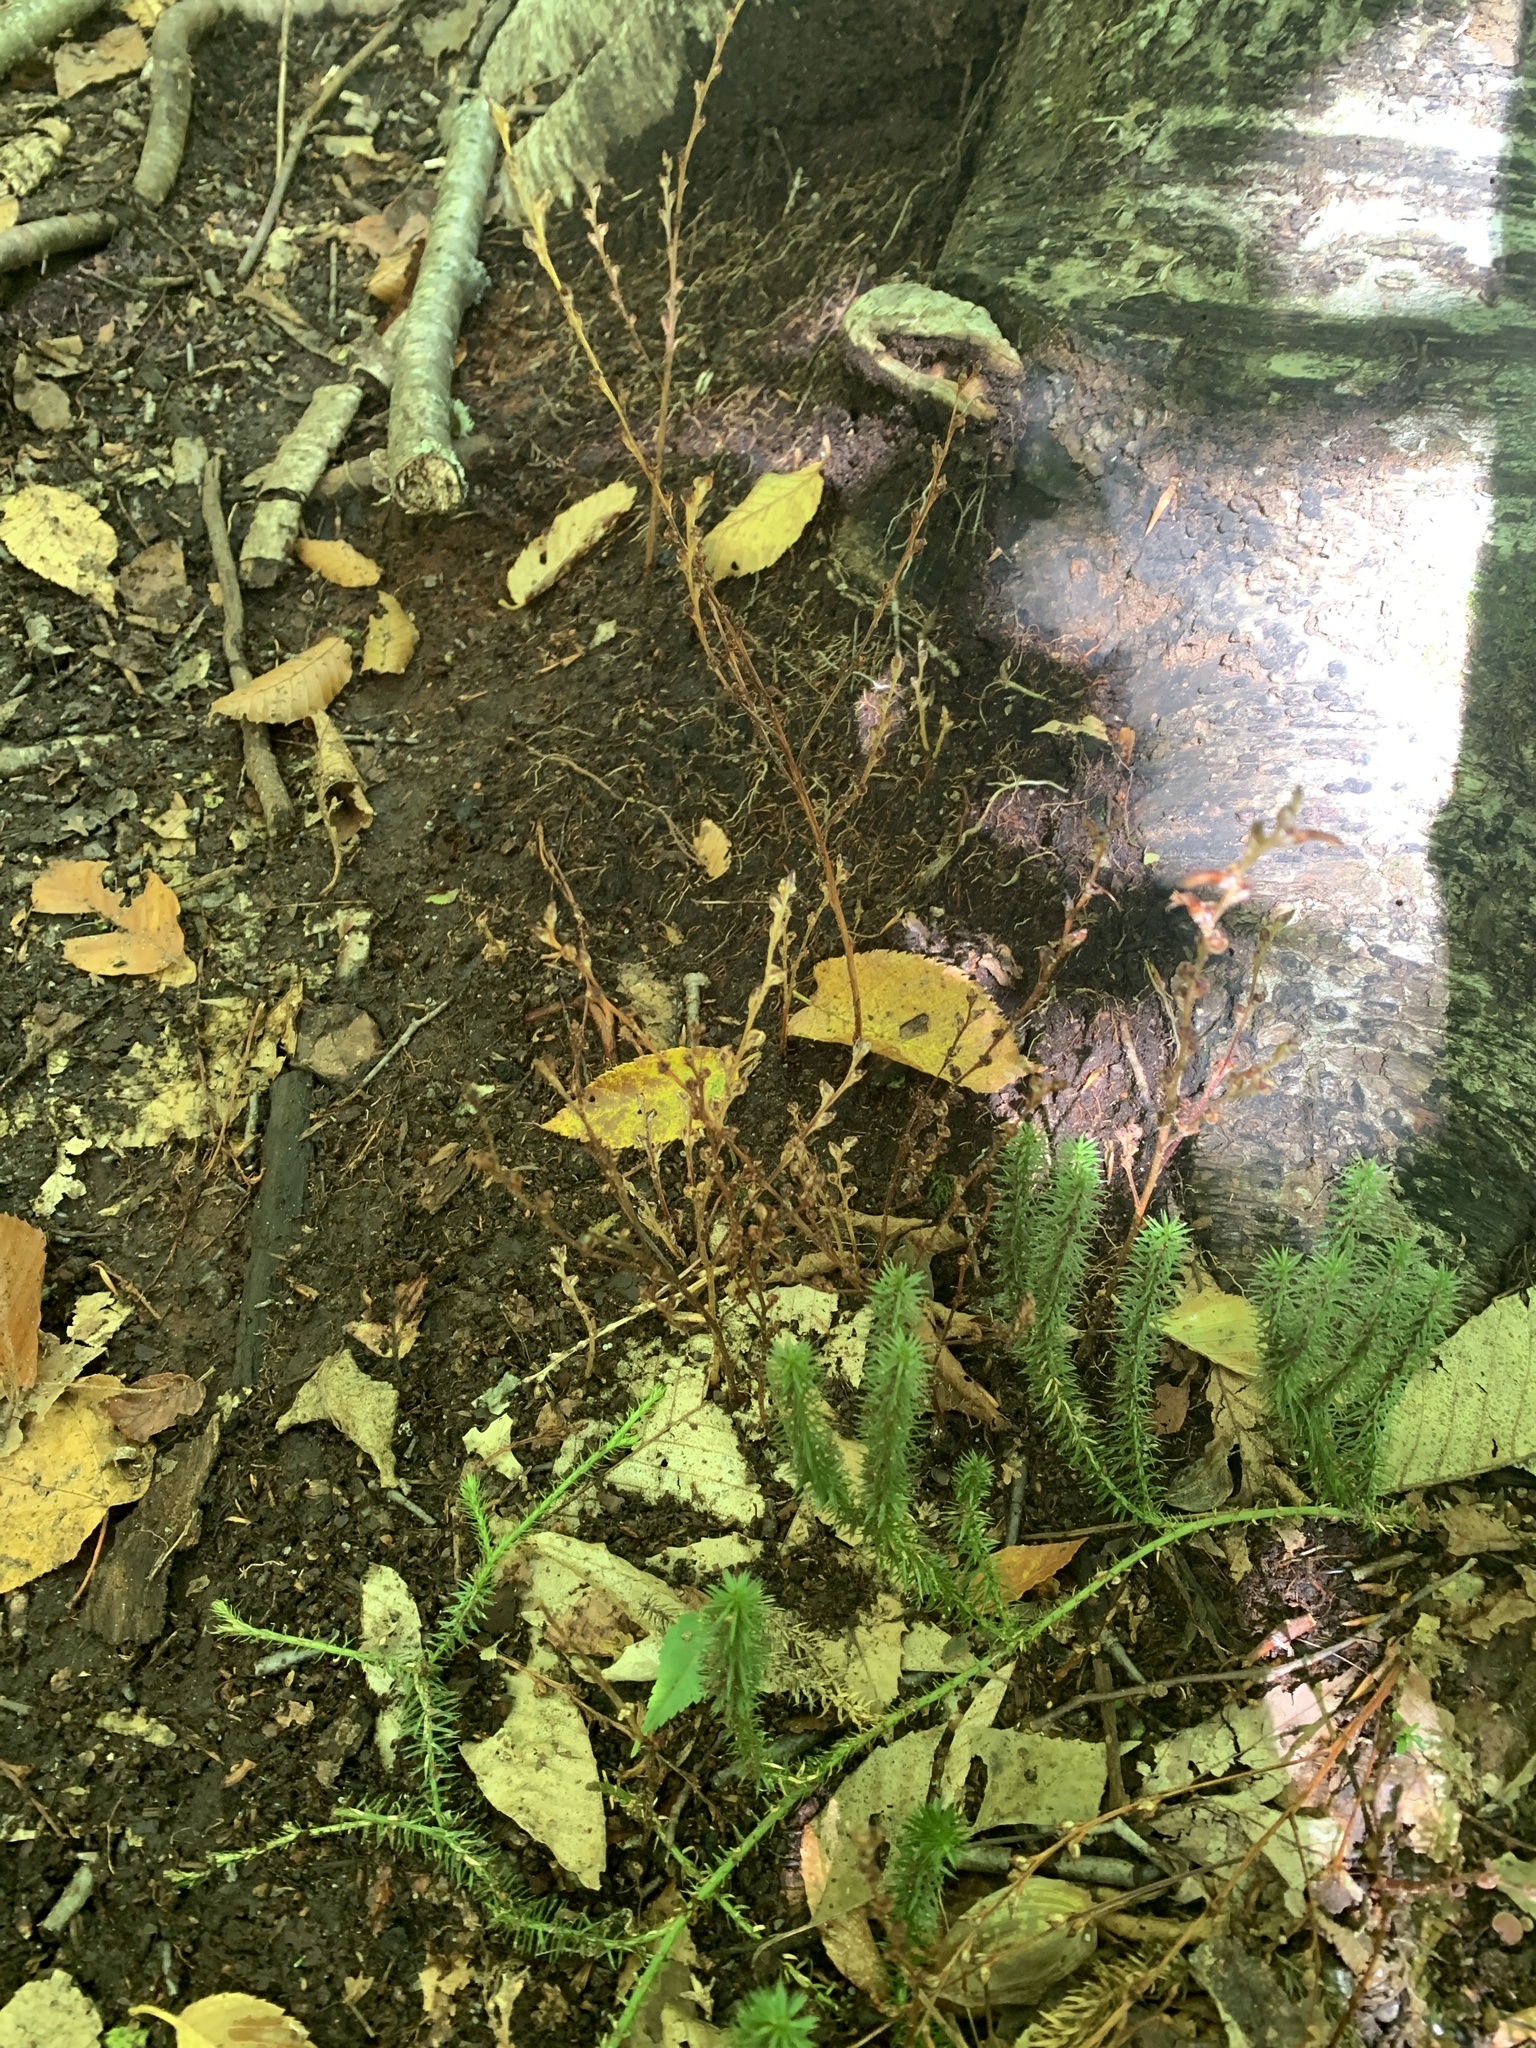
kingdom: Plantae
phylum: Tracheophyta
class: Magnoliopsida
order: Lamiales
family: Orobanchaceae
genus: Epifagus
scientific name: Epifagus virginiana
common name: Beechdrops
